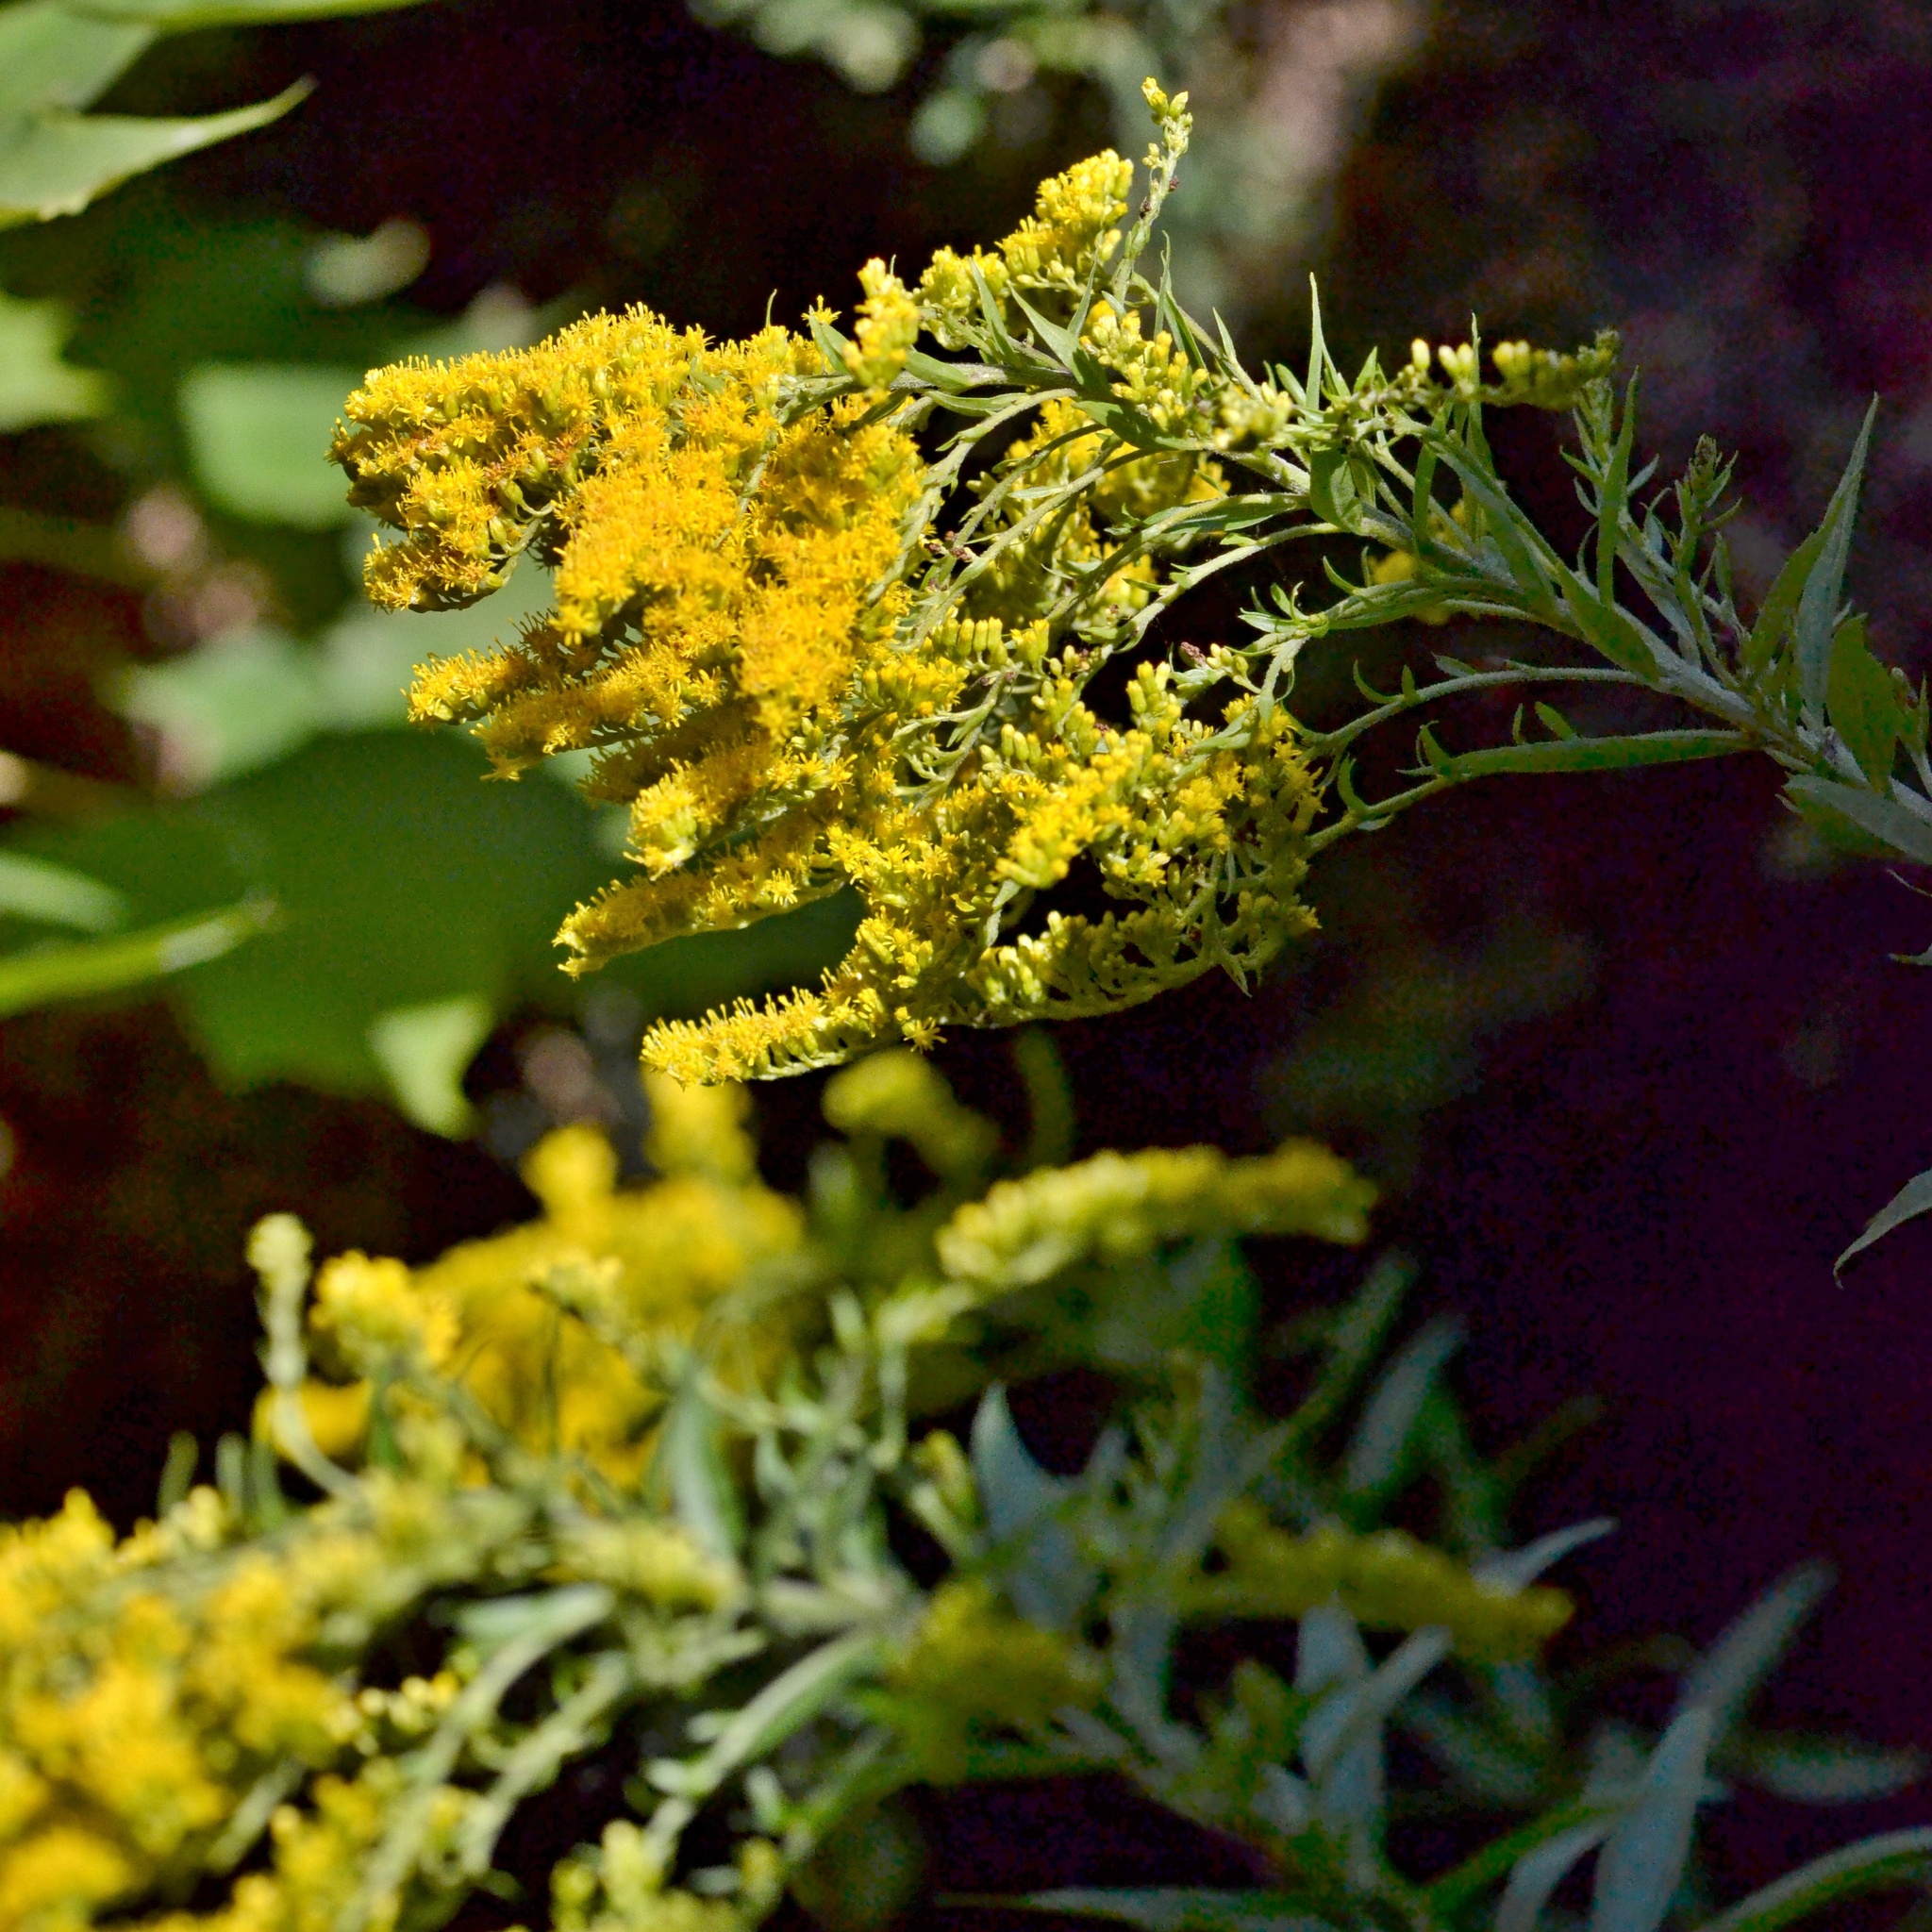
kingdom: Plantae
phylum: Tracheophyta
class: Magnoliopsida
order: Asterales
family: Asteraceae
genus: Solidago
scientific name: Solidago canadensis
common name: Canada goldenrod
